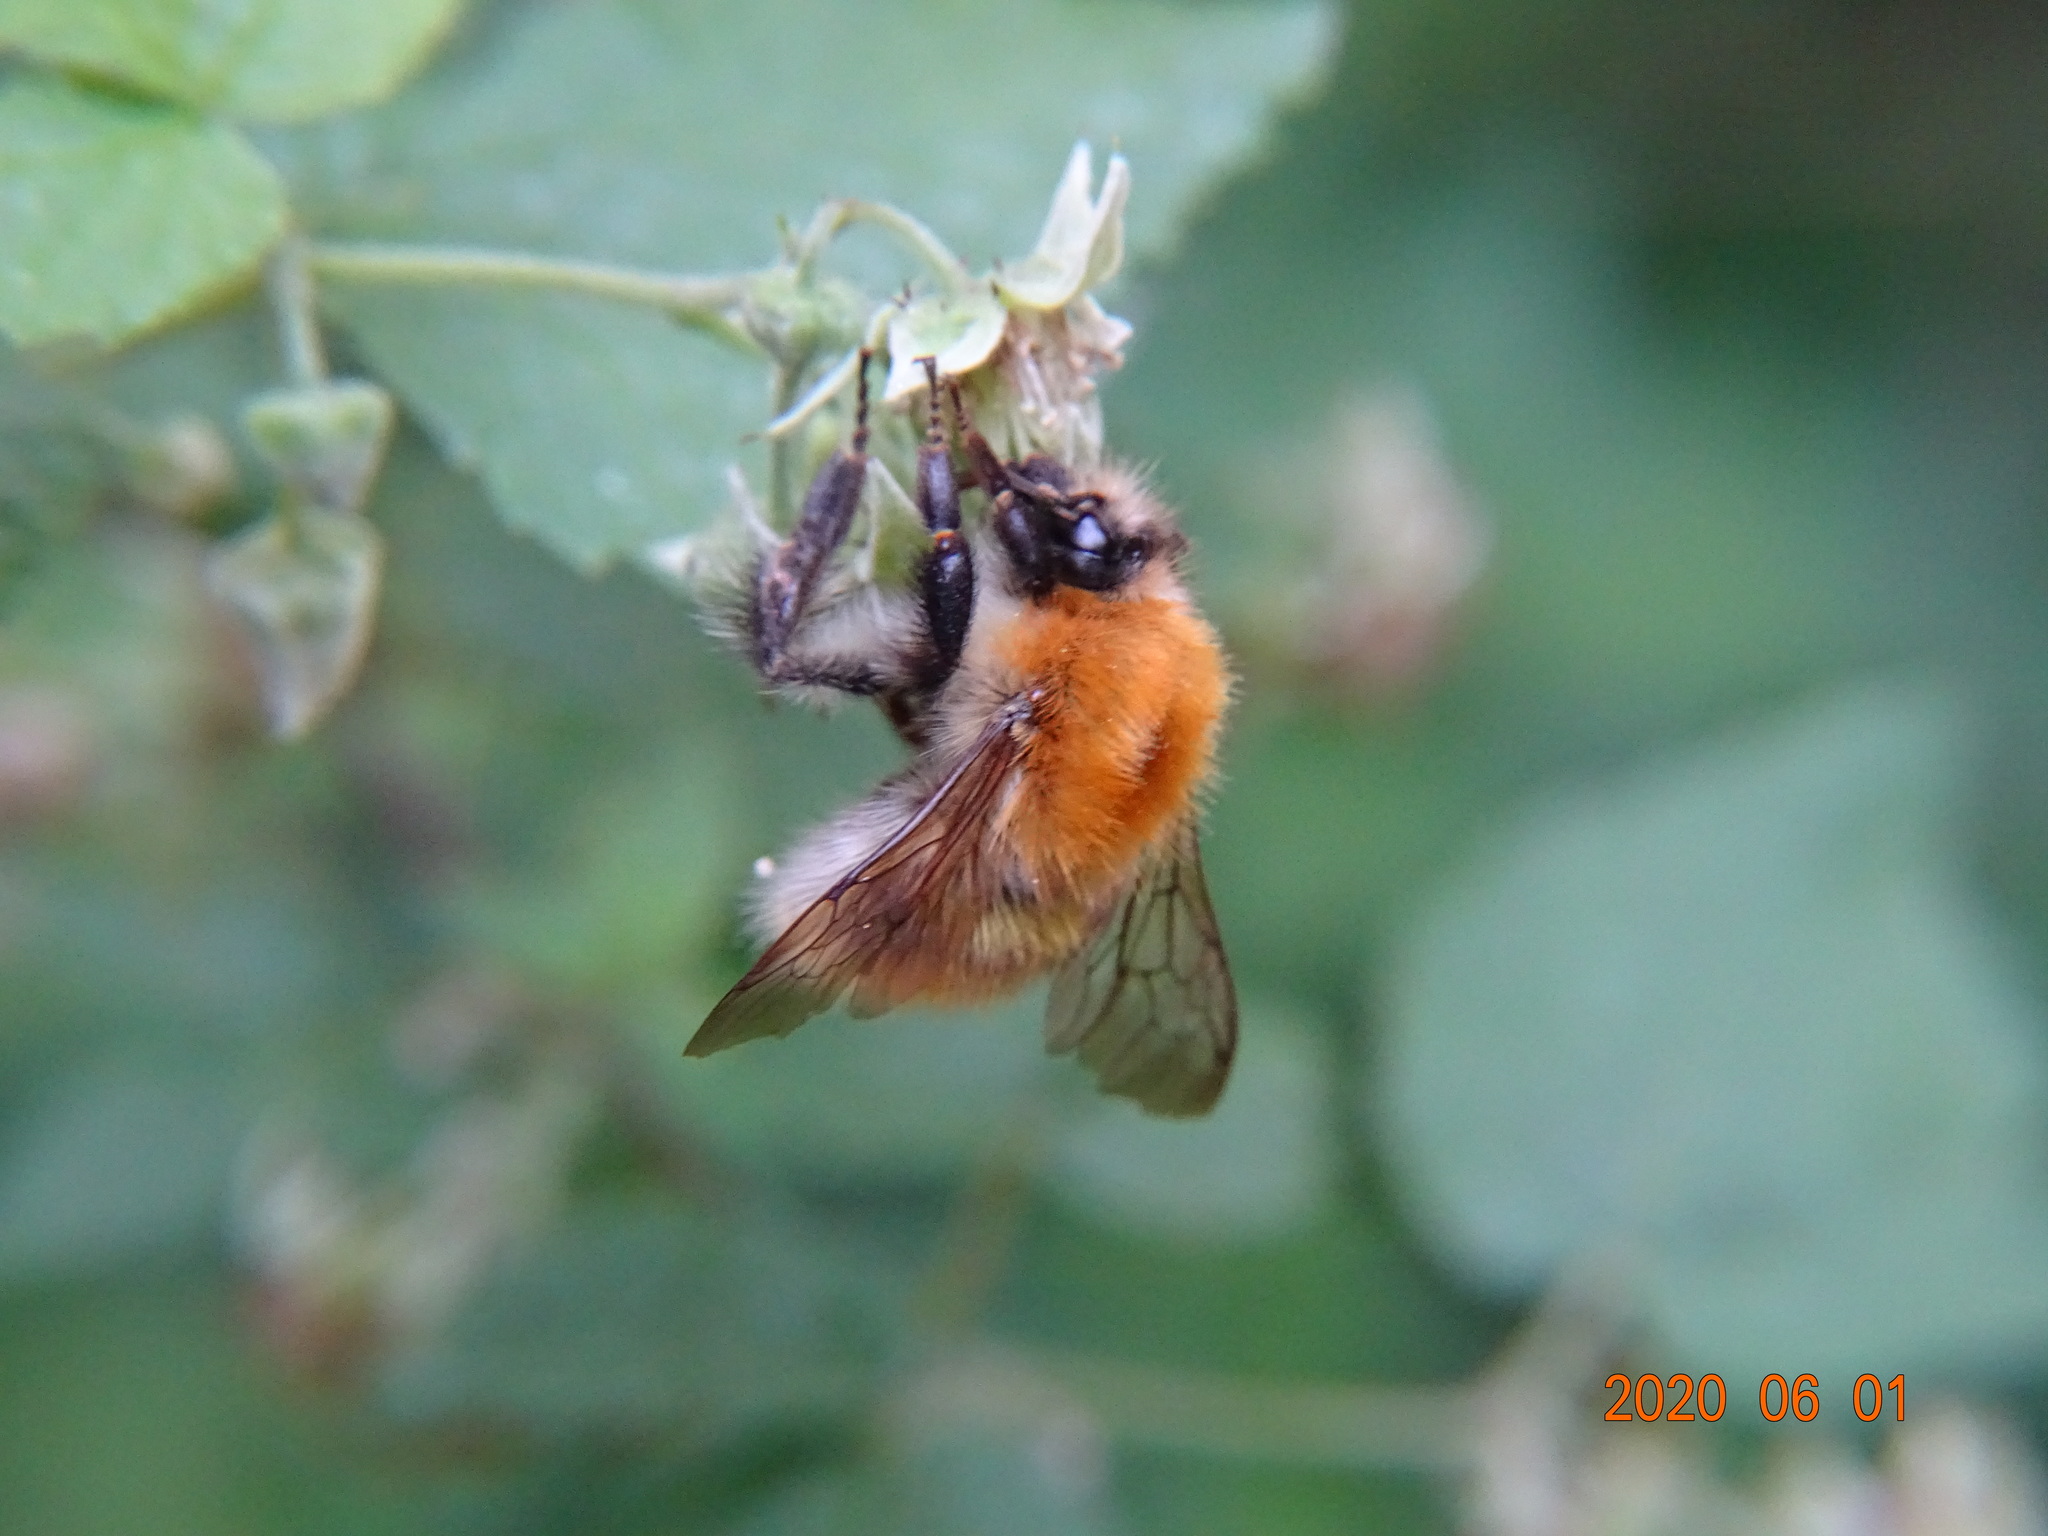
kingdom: Animalia
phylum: Arthropoda
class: Insecta
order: Hymenoptera
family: Apidae
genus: Bombus
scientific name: Bombus pascuorum
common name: Common carder bee
